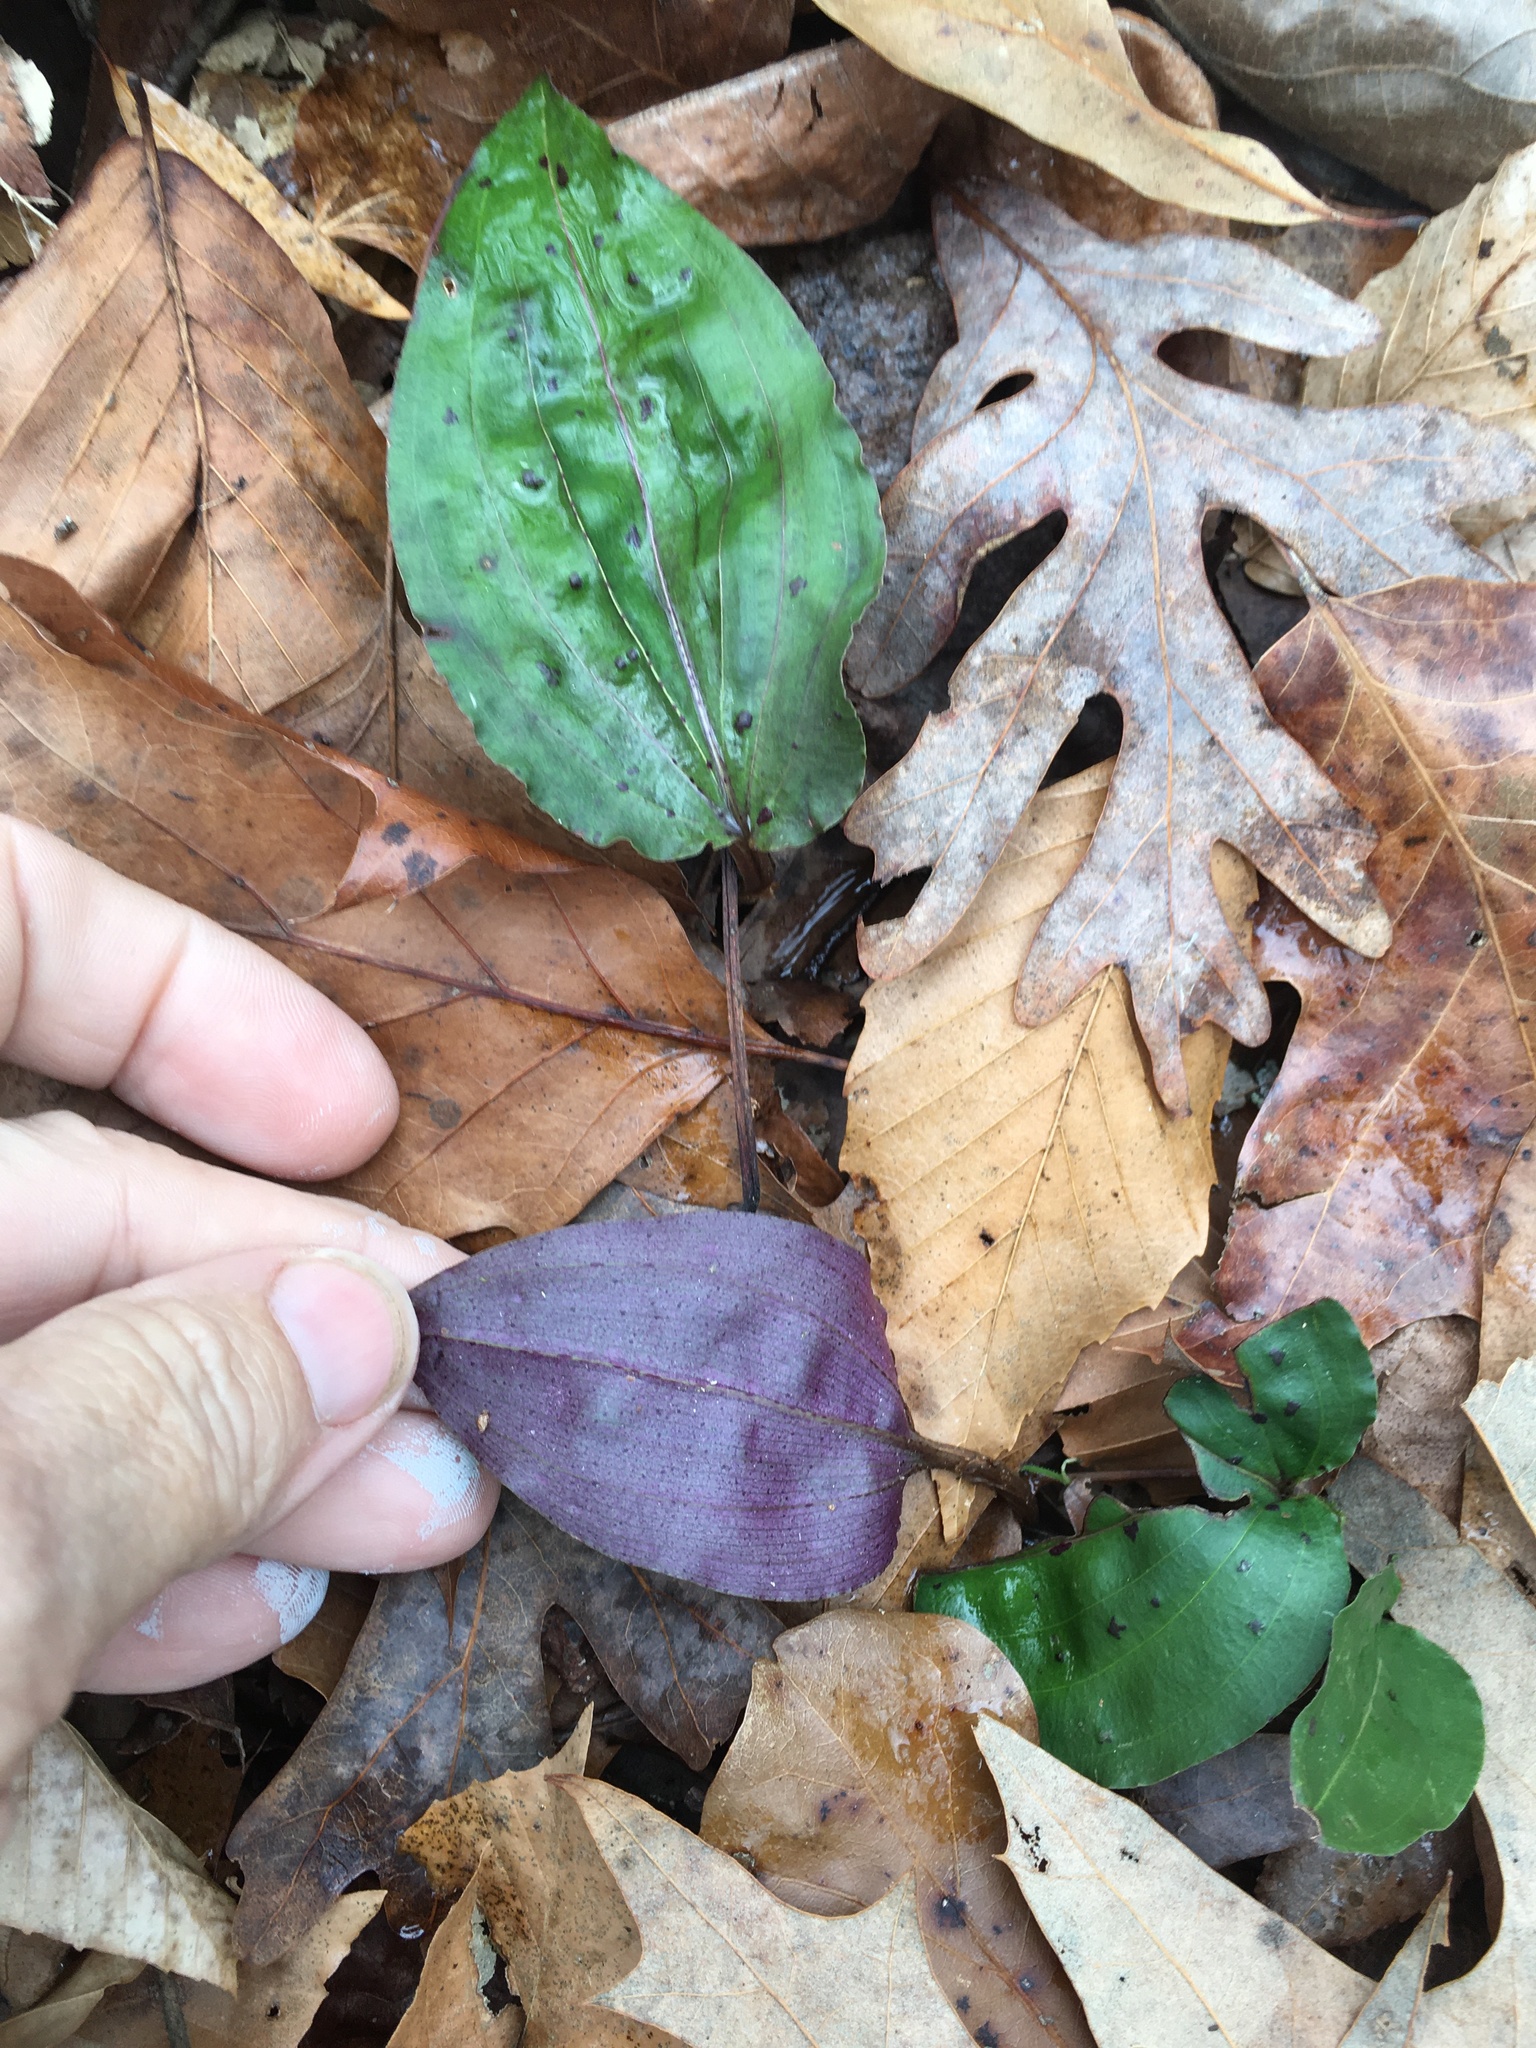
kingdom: Plantae
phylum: Tracheophyta
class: Liliopsida
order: Asparagales
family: Orchidaceae
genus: Tipularia
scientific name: Tipularia discolor
